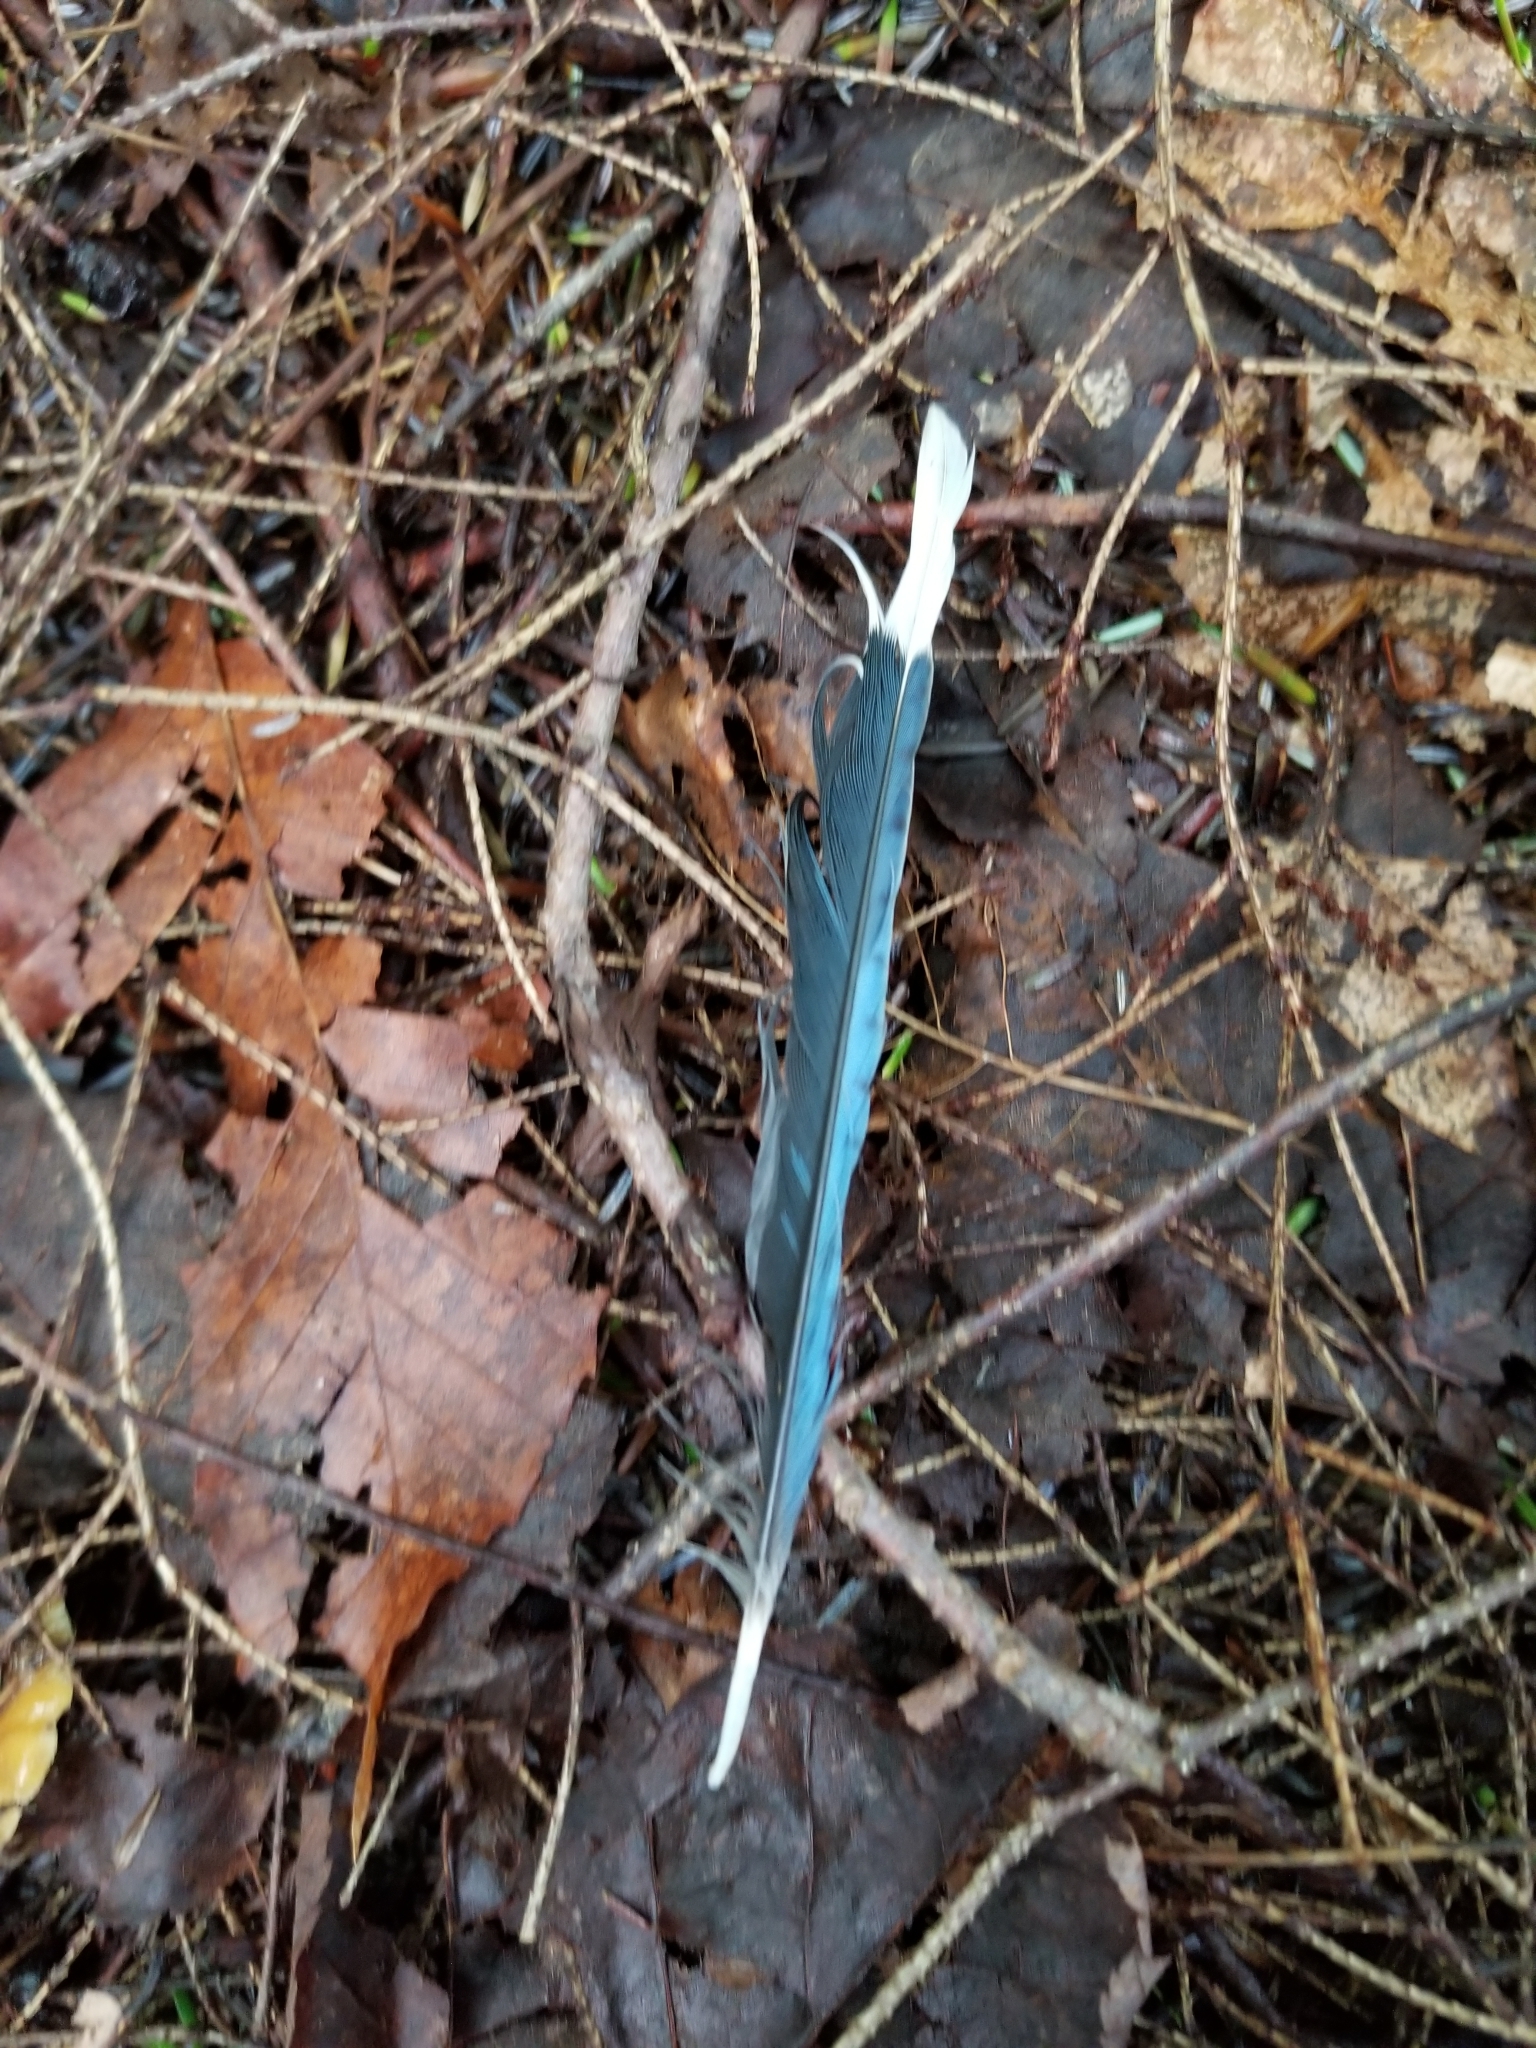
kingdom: Animalia
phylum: Chordata
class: Aves
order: Passeriformes
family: Corvidae
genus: Cyanocitta
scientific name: Cyanocitta cristata
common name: Blue jay
